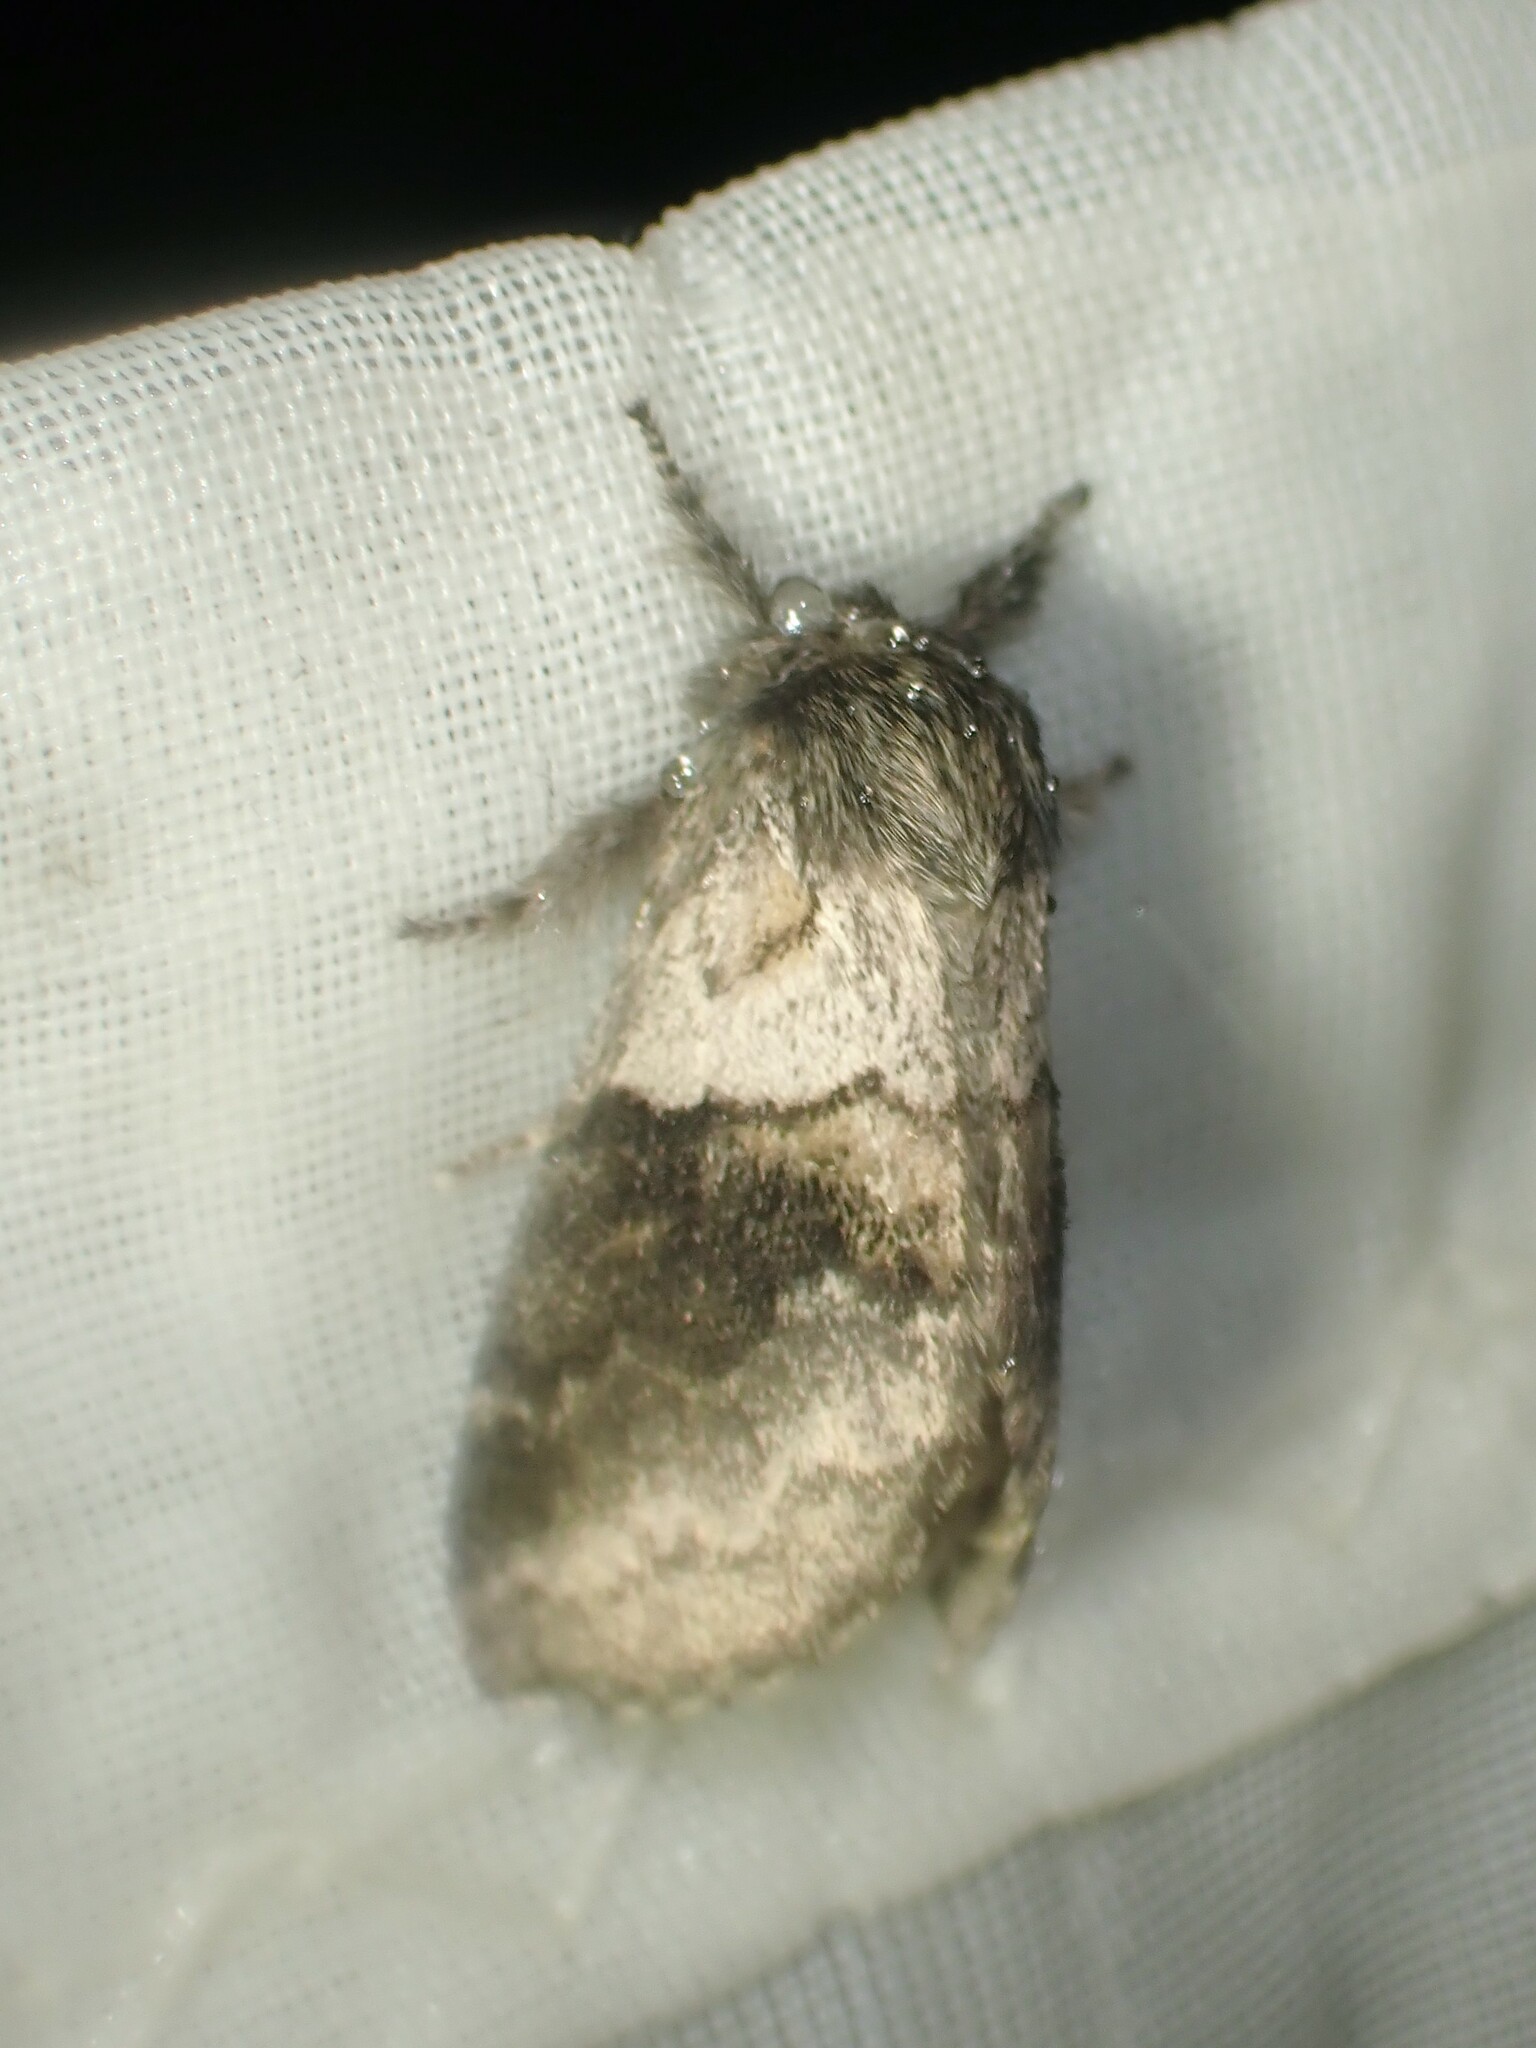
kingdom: Animalia
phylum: Arthropoda
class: Insecta
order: Lepidoptera
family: Notodontidae
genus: Gluphisia
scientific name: Gluphisia septentrionis
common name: Common gluphisia
